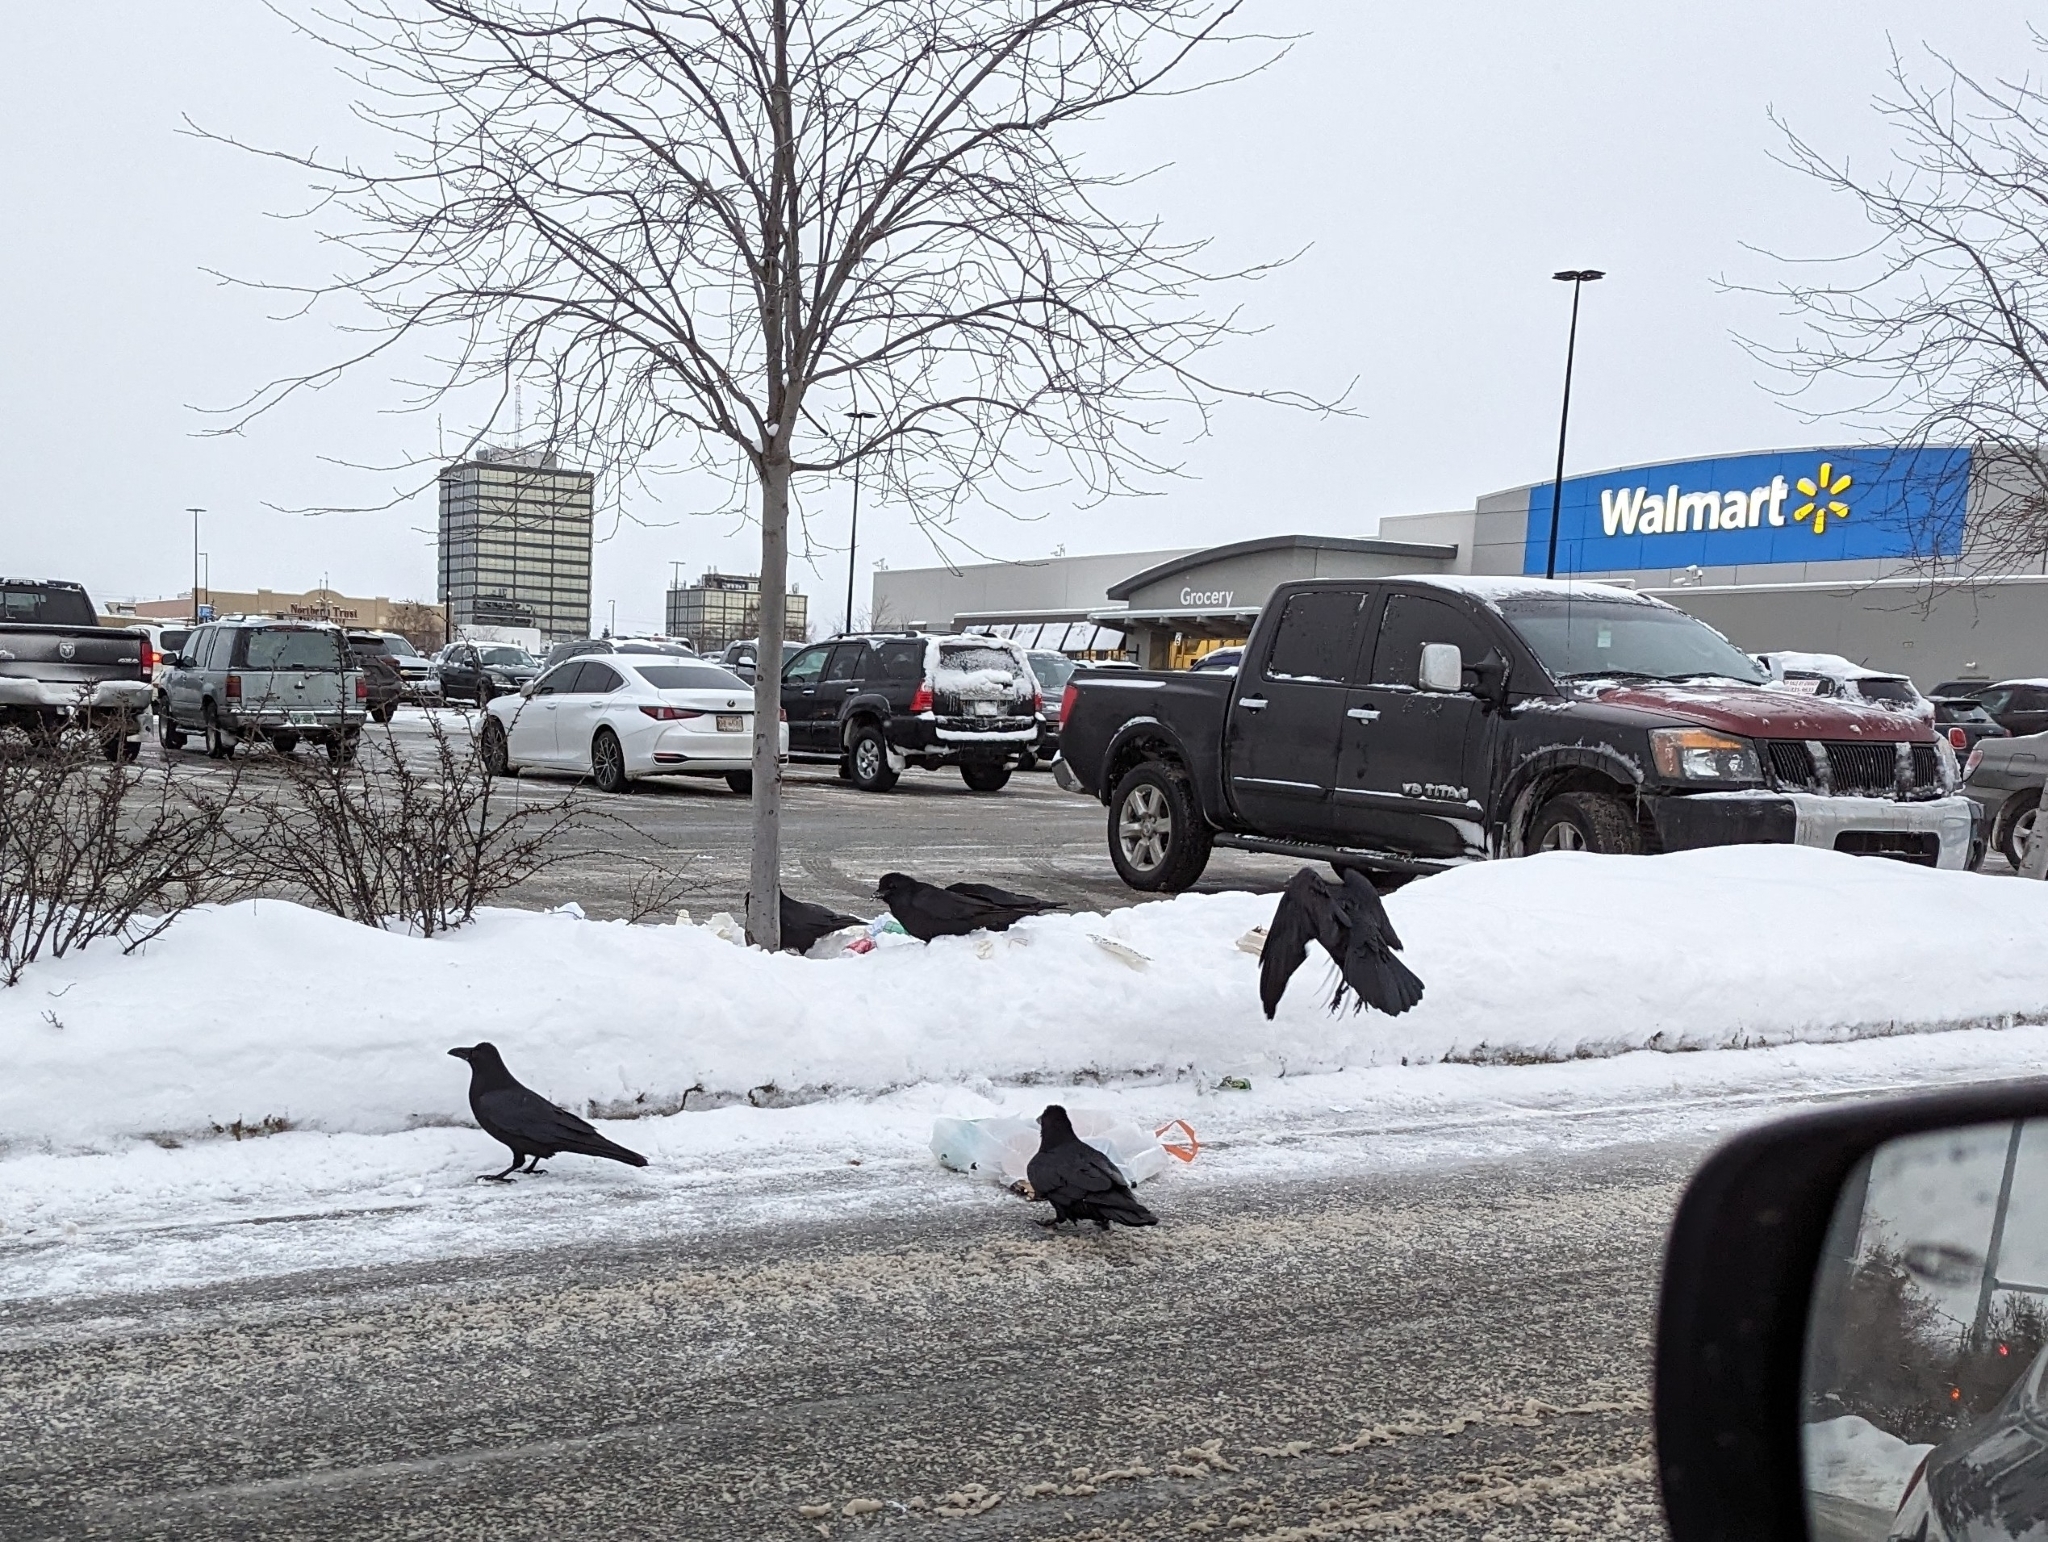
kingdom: Animalia
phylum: Chordata
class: Aves
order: Passeriformes
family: Corvidae
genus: Corvus
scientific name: Corvus corax
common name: Common raven
